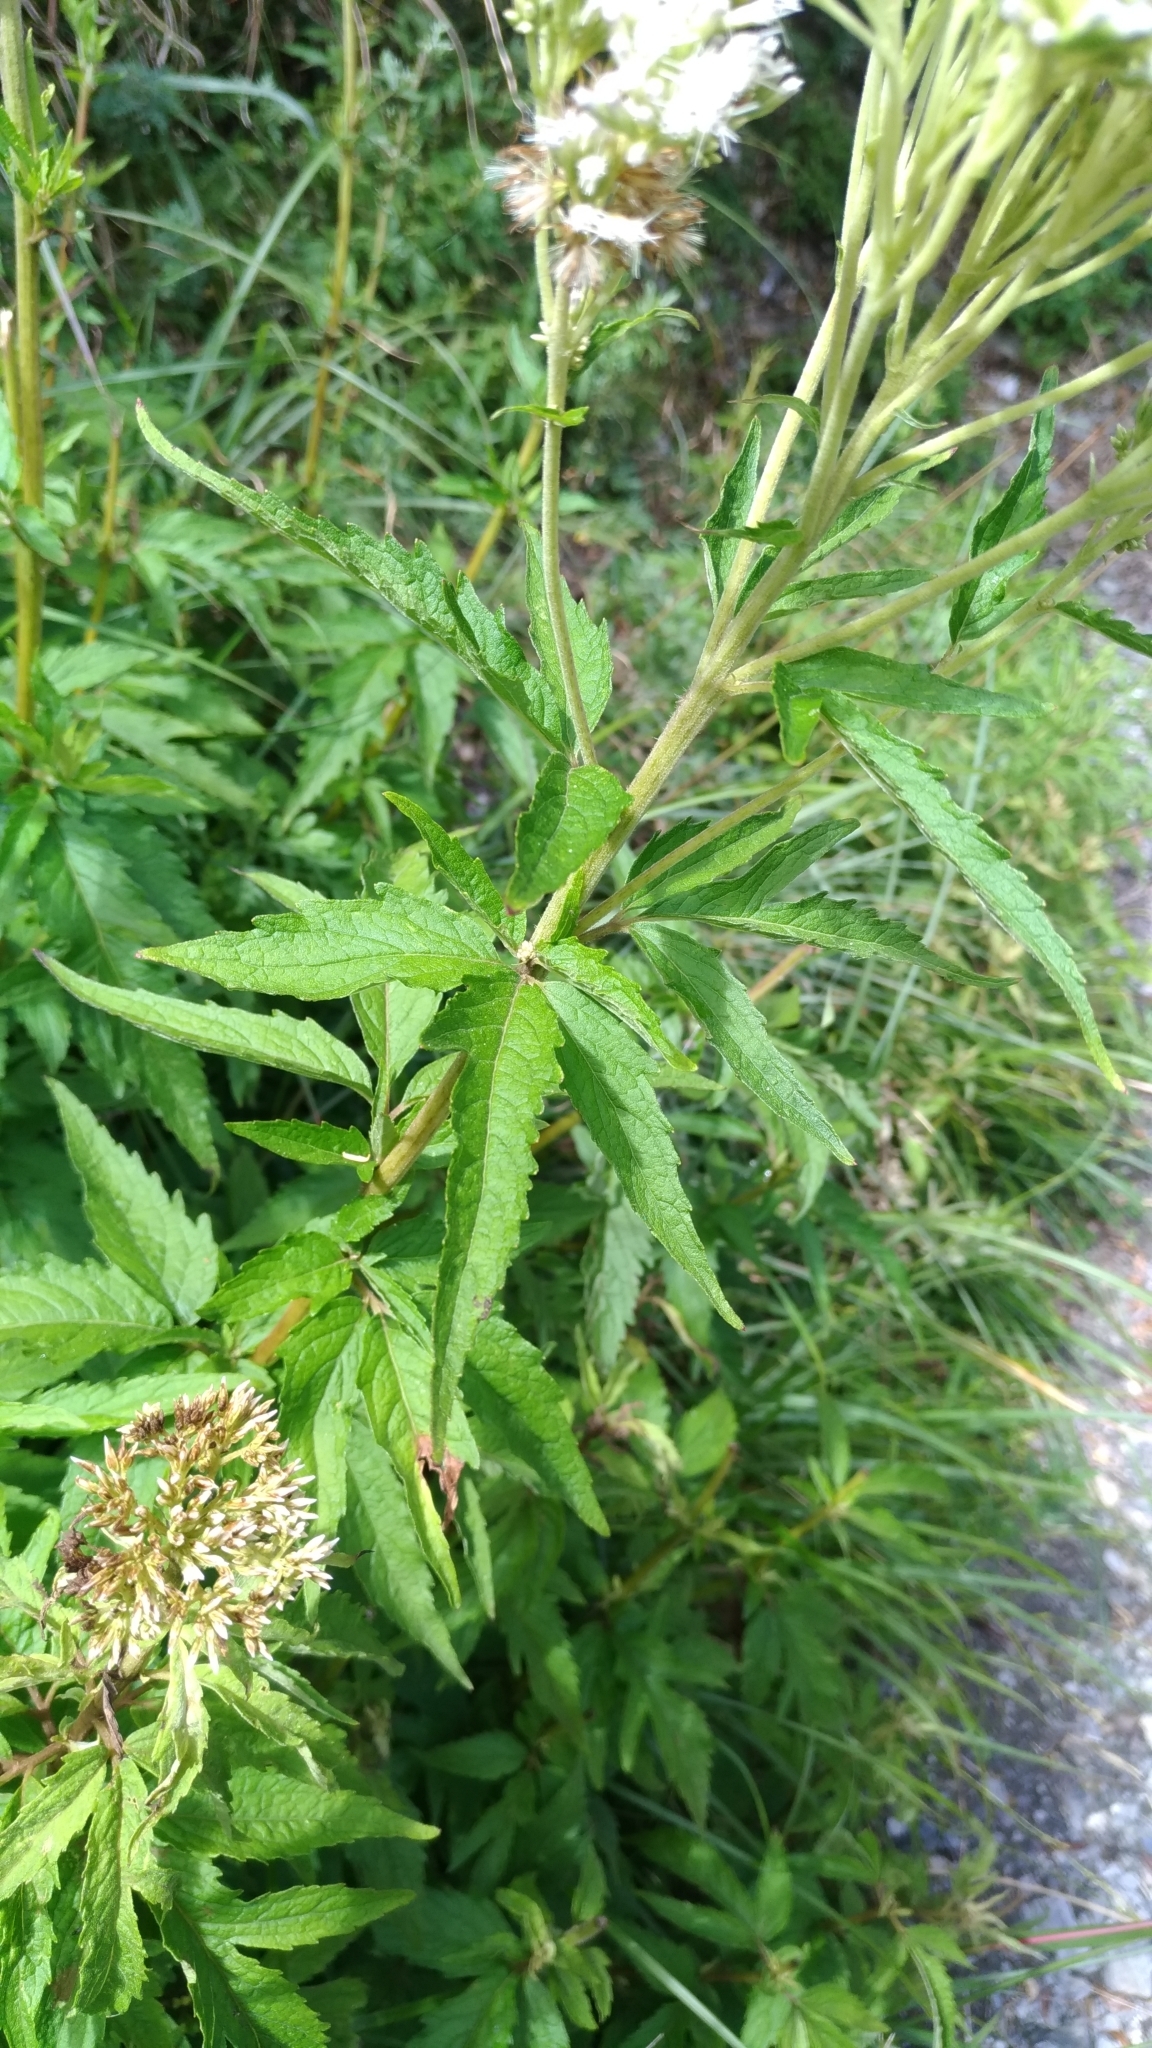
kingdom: Plantae
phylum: Tracheophyta
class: Magnoliopsida
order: Asterales
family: Asteraceae
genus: Eupatorium
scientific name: Eupatorium formosanum
